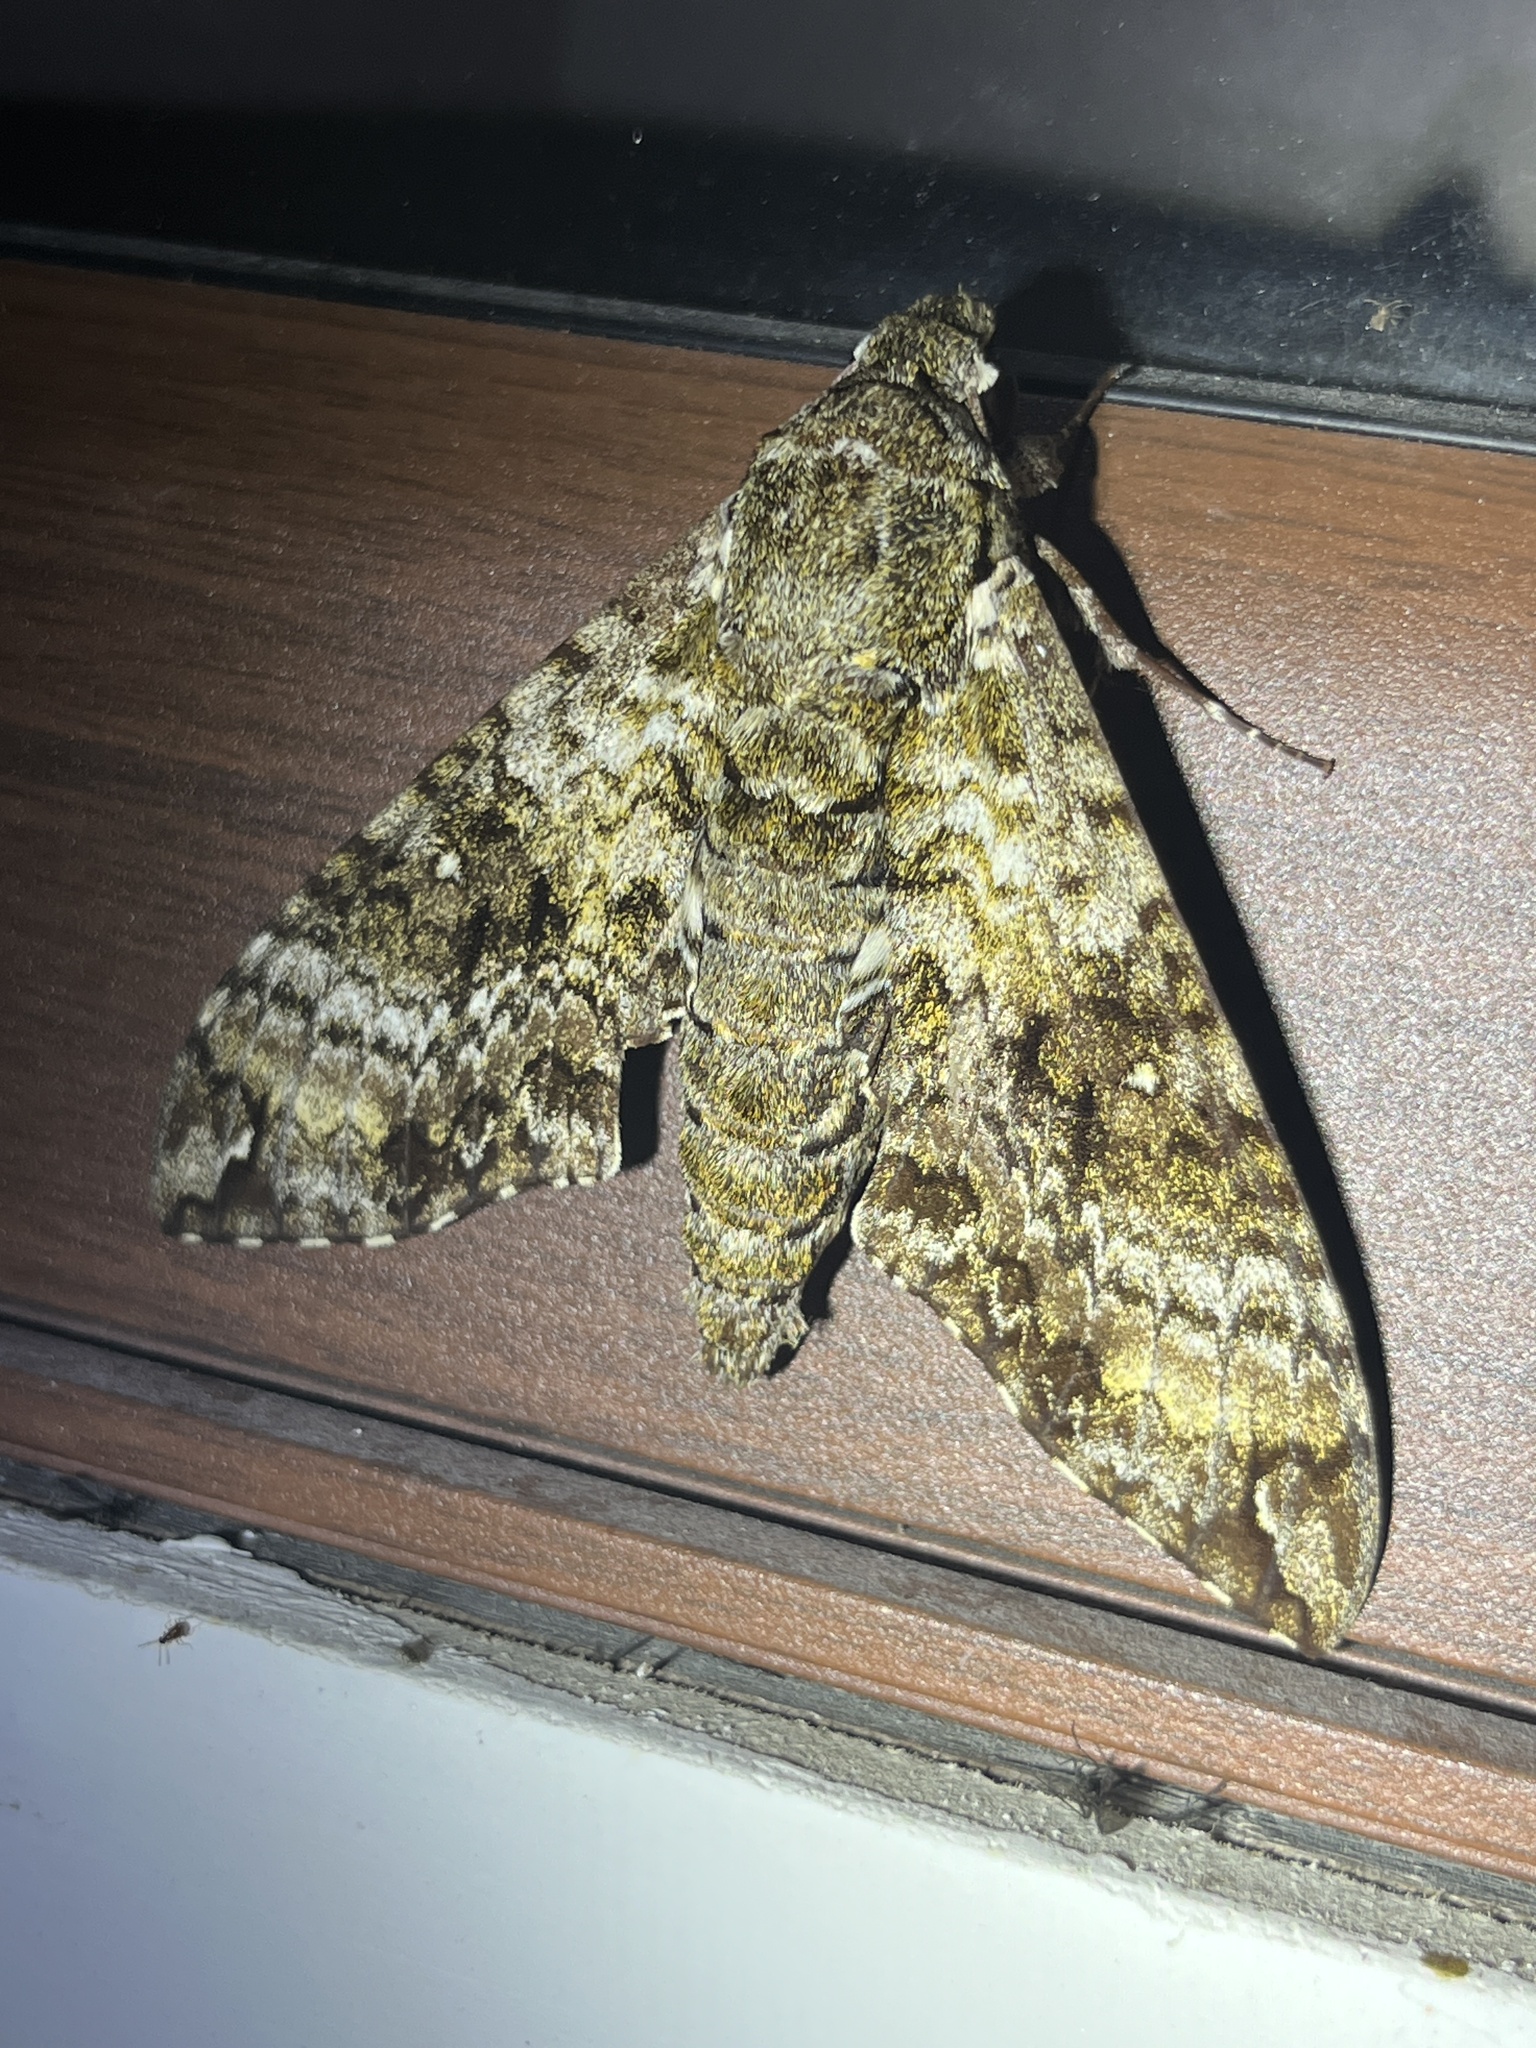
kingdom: Animalia
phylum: Arthropoda
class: Insecta
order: Lepidoptera
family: Sphingidae
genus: Manduca
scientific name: Manduca schausi
